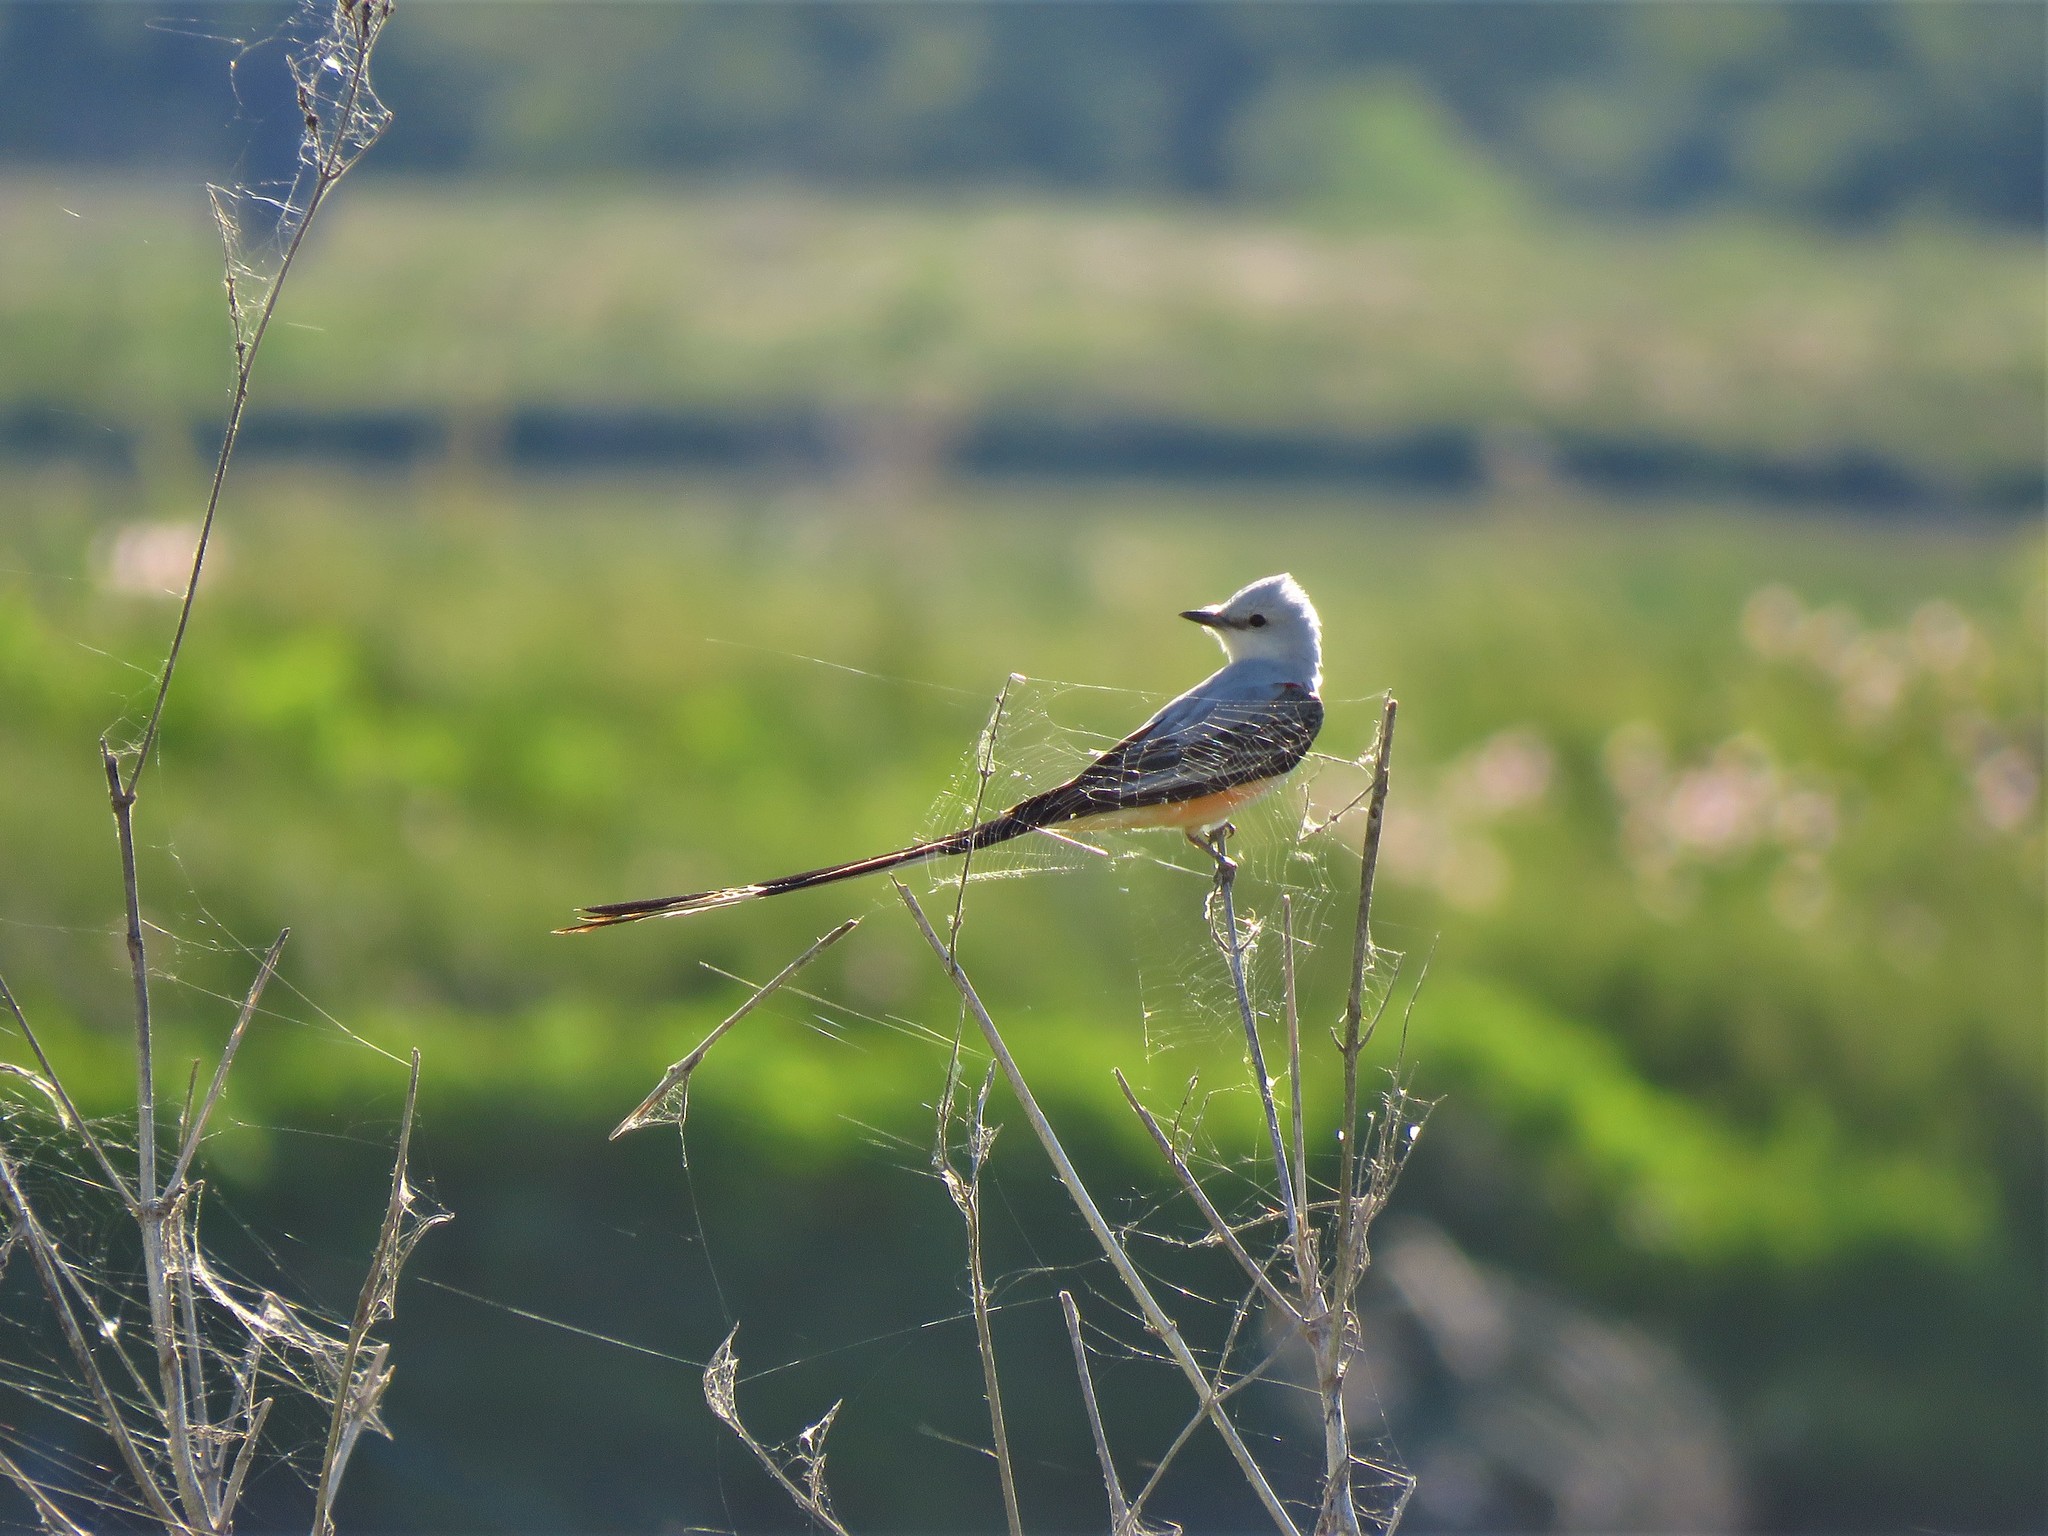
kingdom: Animalia
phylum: Chordata
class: Aves
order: Passeriformes
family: Tyrannidae
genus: Tyrannus
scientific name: Tyrannus forficatus
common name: Scissor-tailed flycatcher
